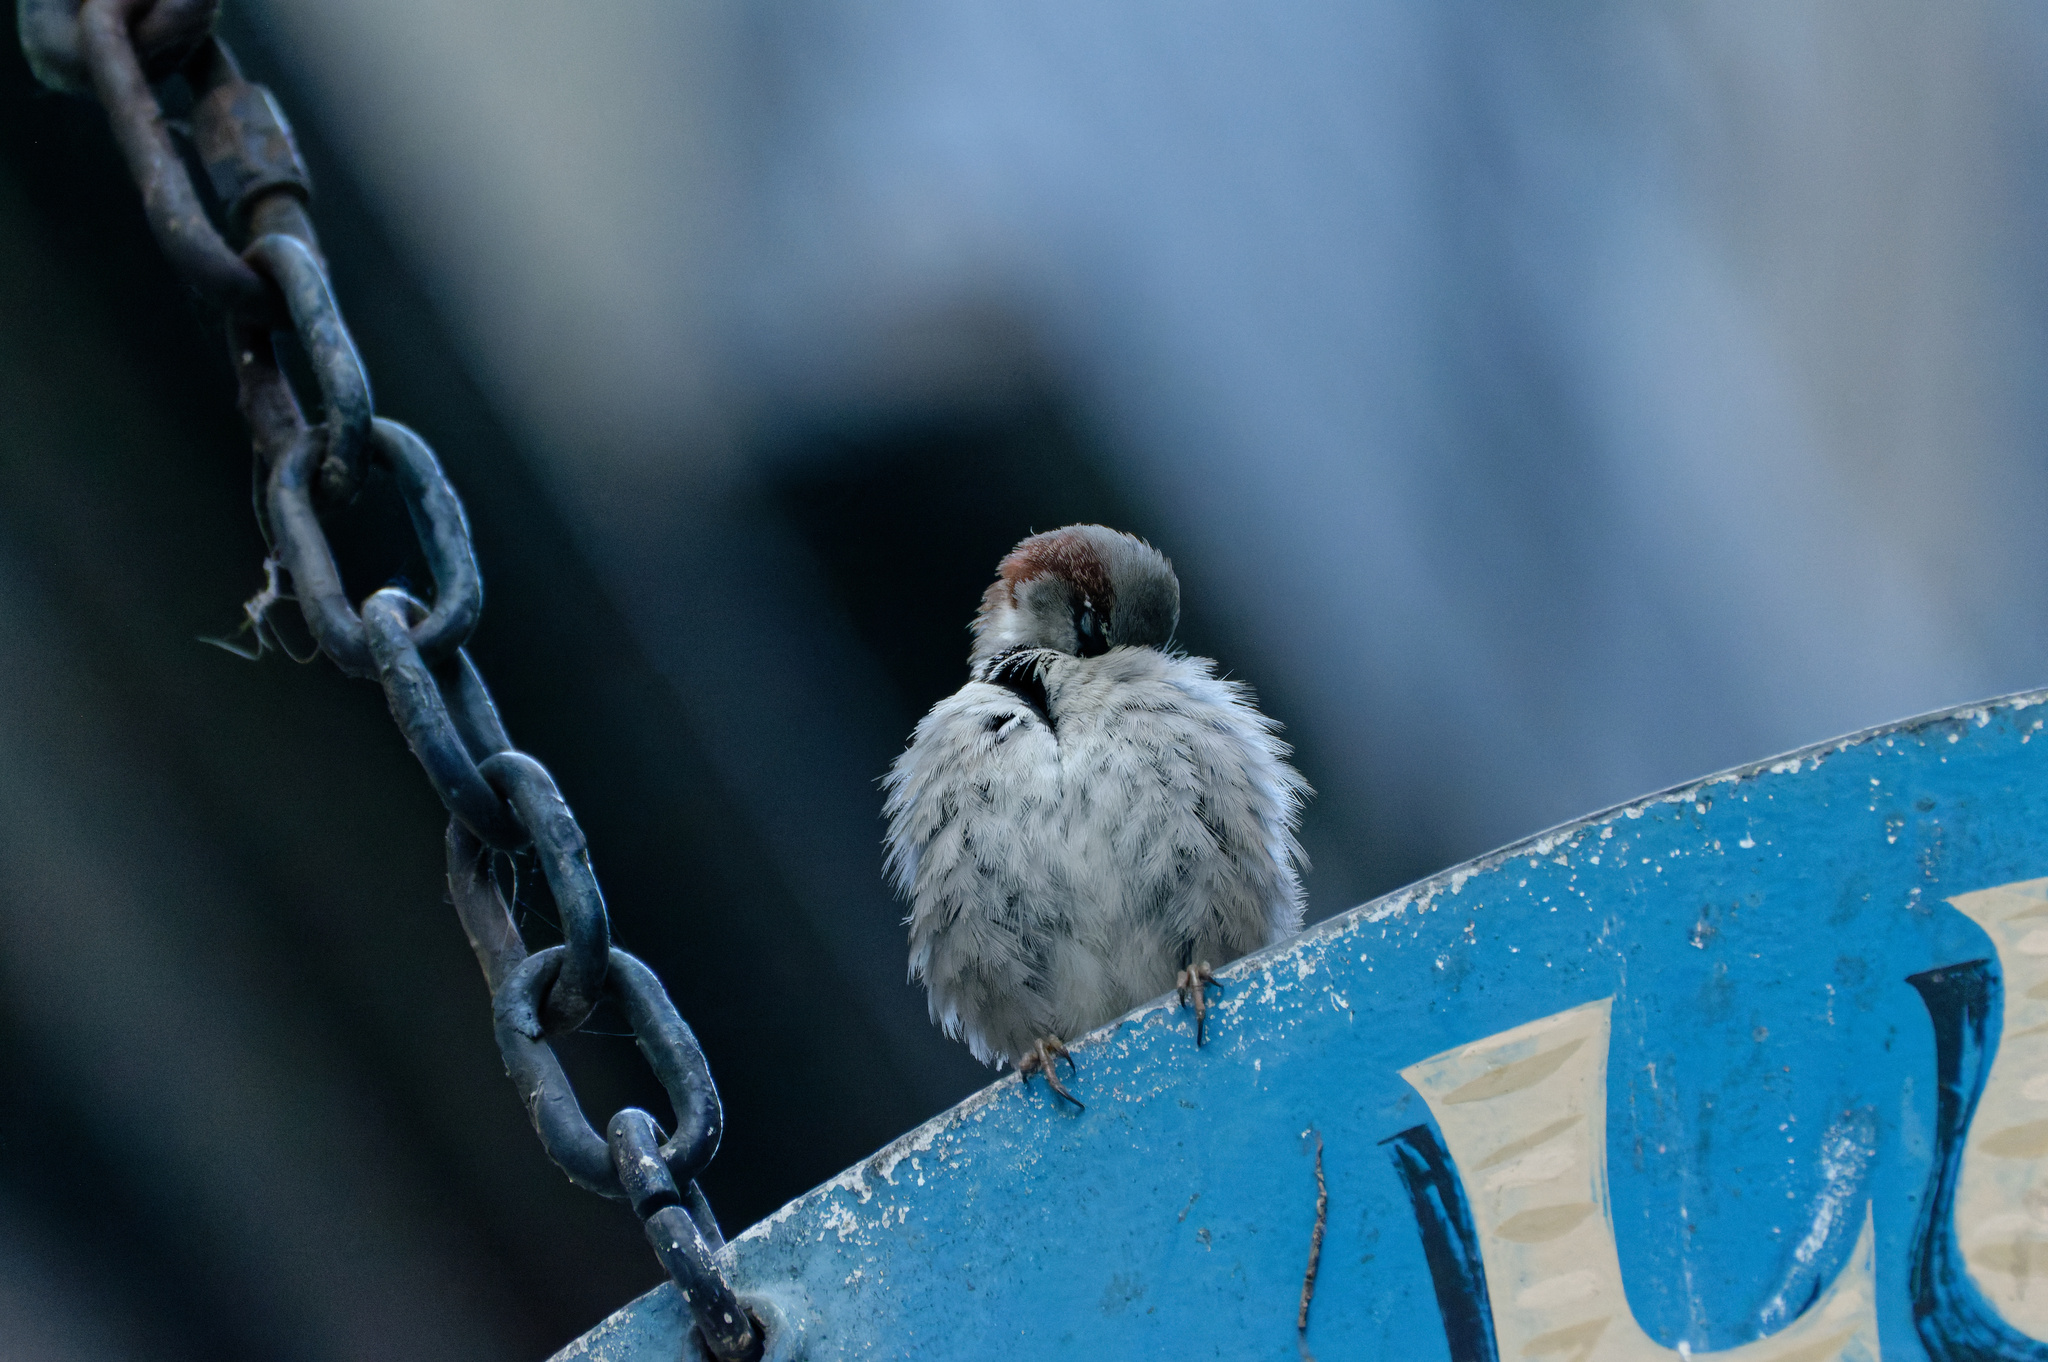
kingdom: Animalia
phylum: Chordata
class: Aves
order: Passeriformes
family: Passeridae
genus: Passer
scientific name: Passer domesticus
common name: House sparrow
